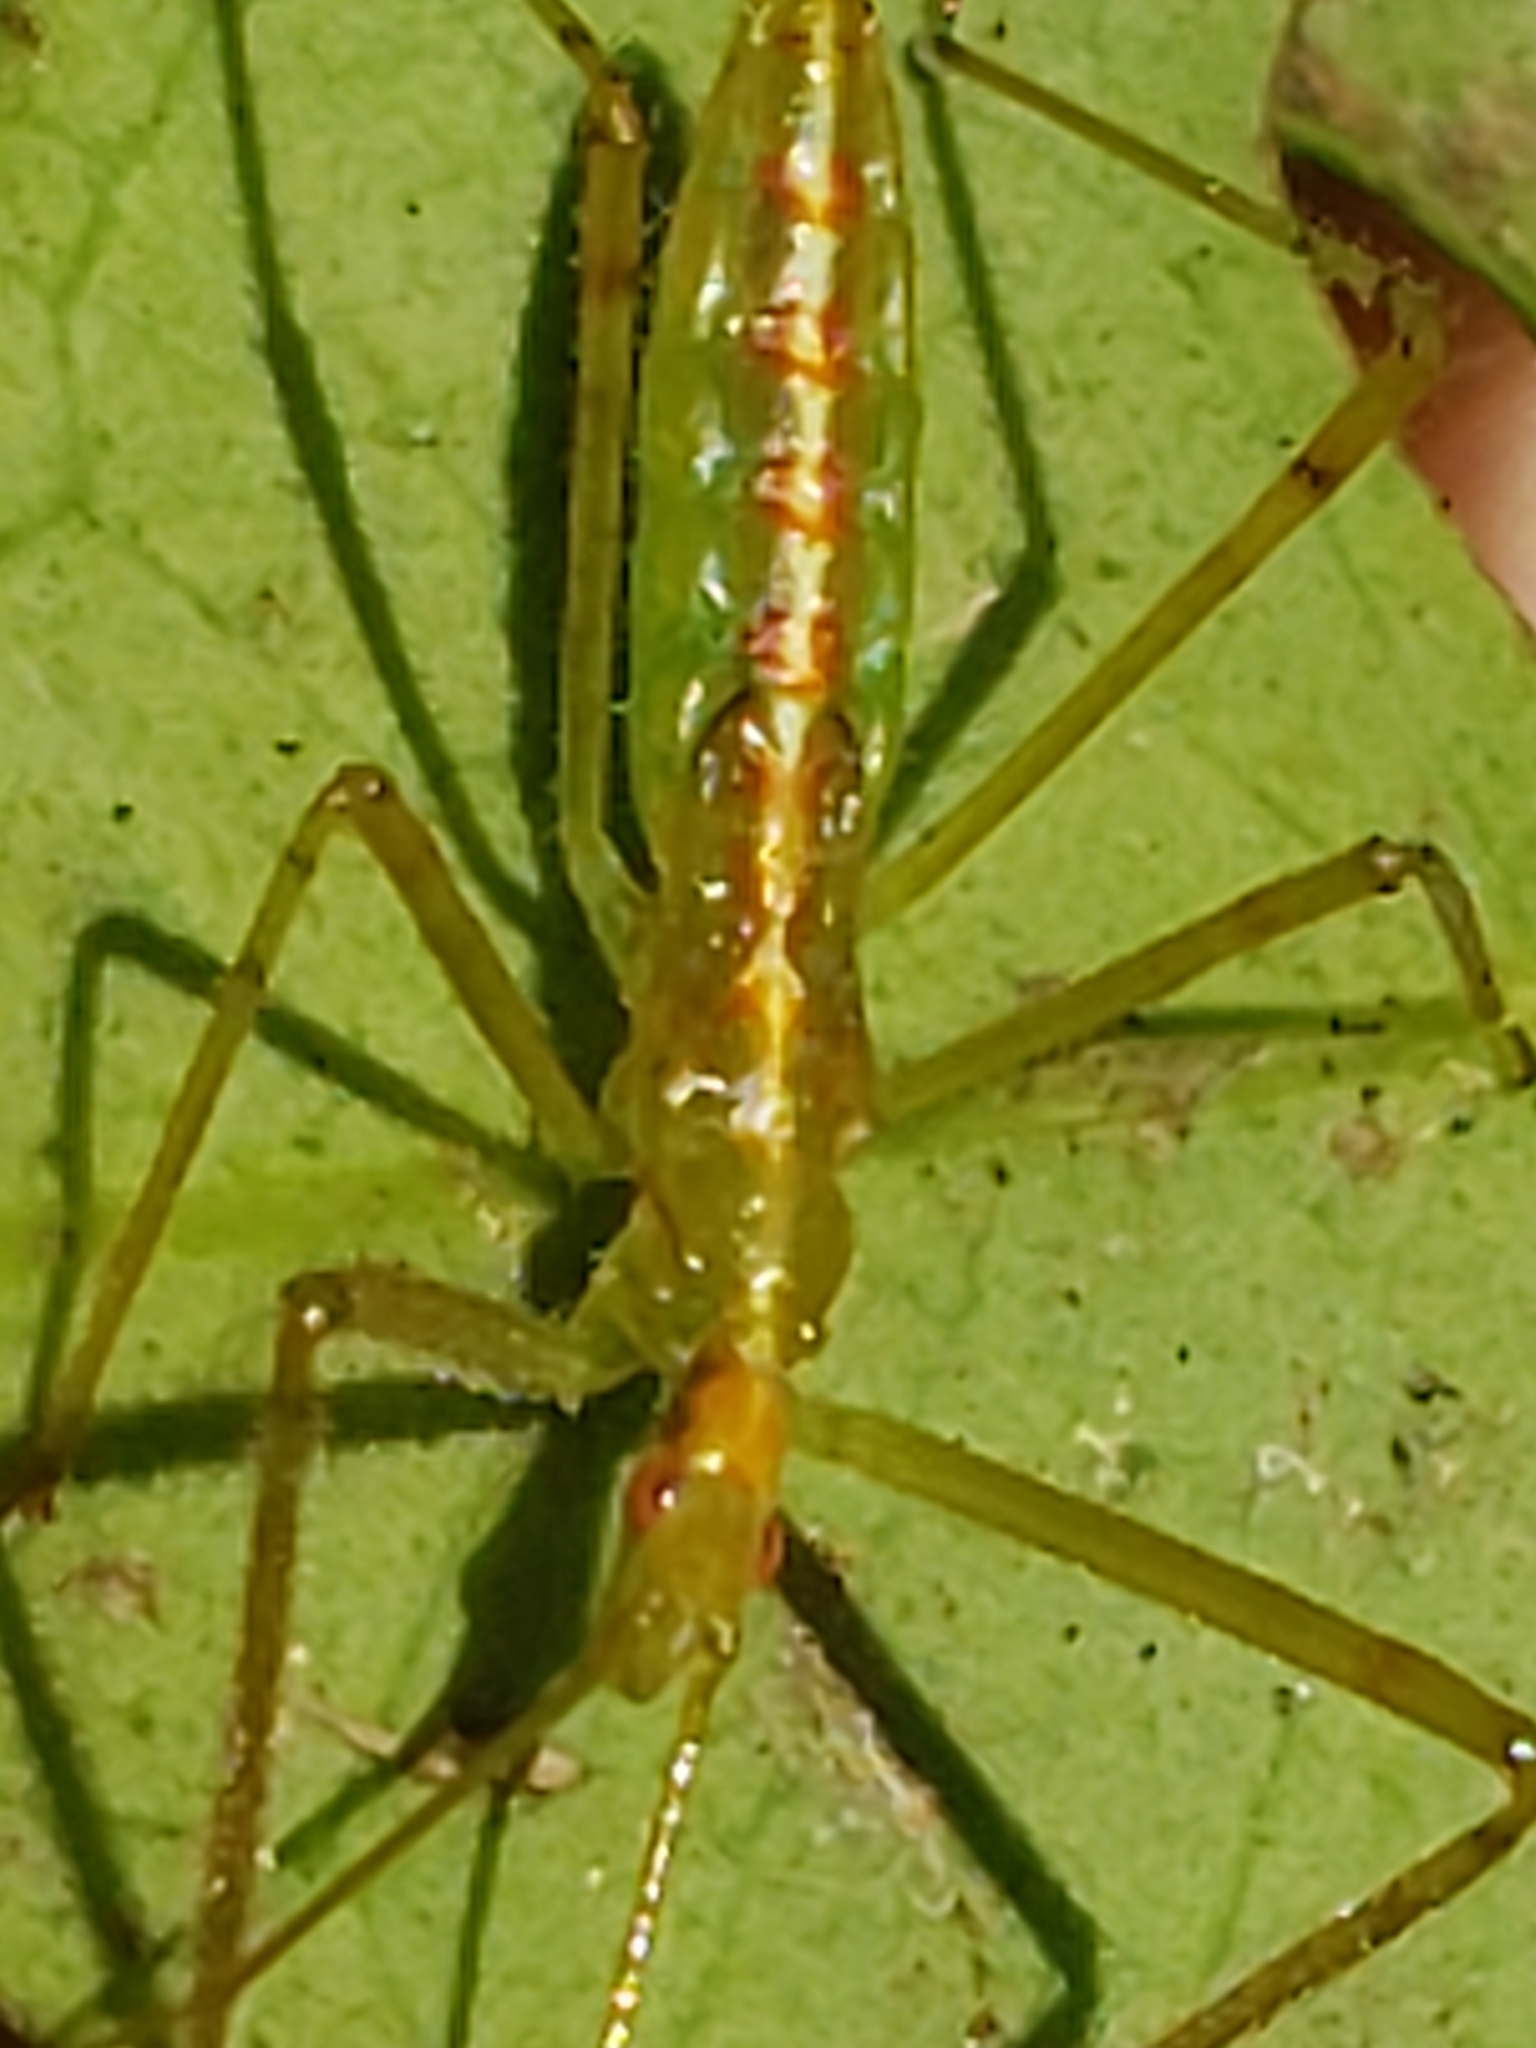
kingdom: Animalia
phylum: Arthropoda
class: Insecta
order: Hemiptera
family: Reduviidae
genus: Zelus
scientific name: Zelus luridus
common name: Pale green assassin bug
